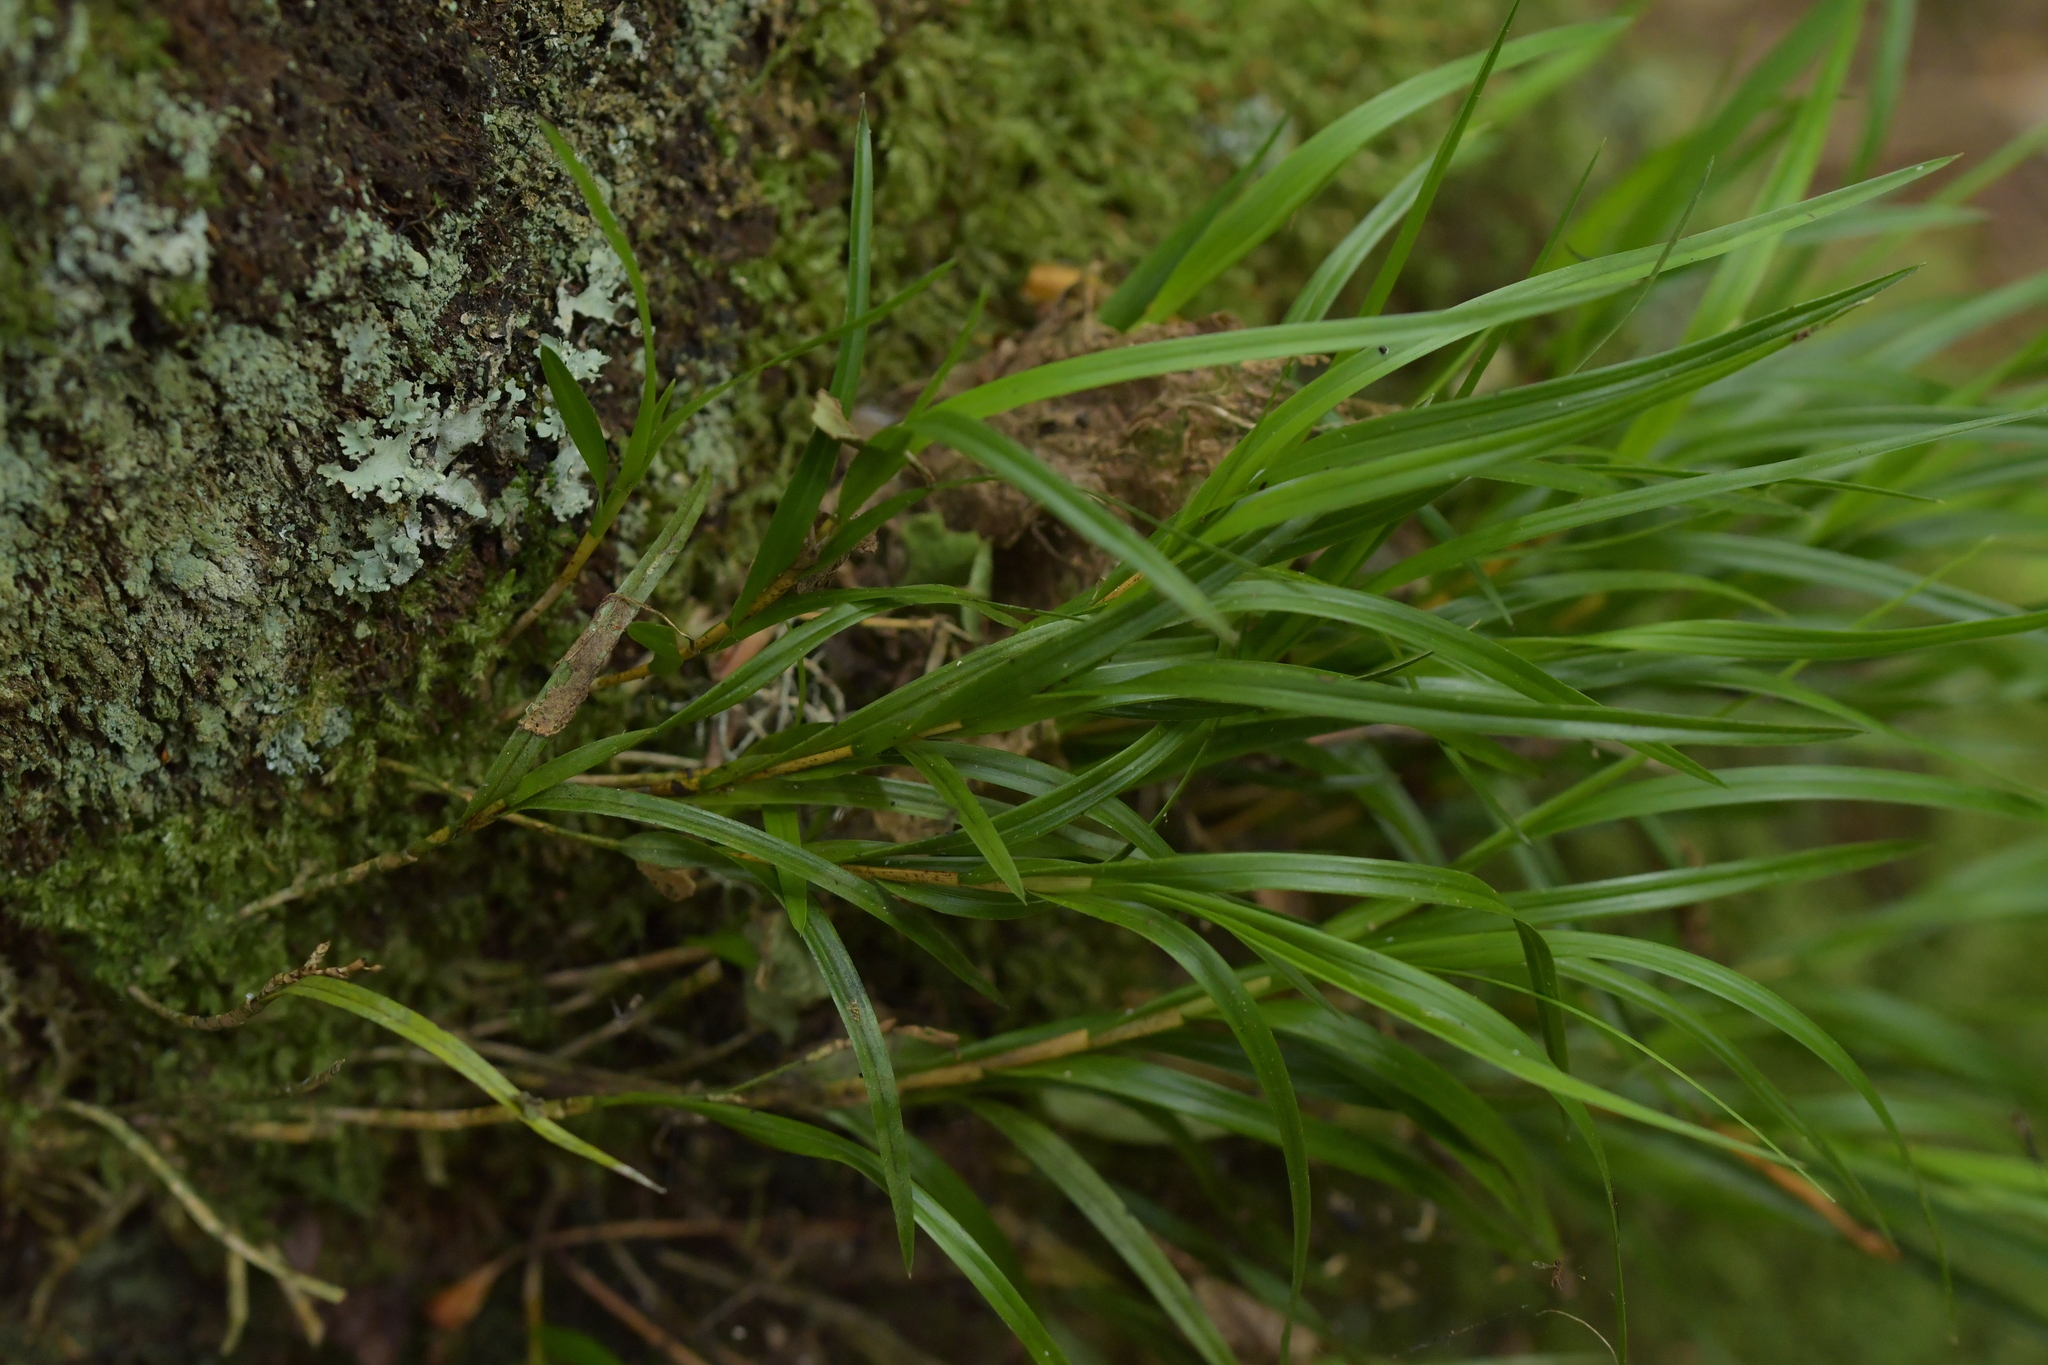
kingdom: Plantae
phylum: Tracheophyta
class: Liliopsida
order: Asparagales
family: Orchidaceae
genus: Earina
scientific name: Earina mucronata
